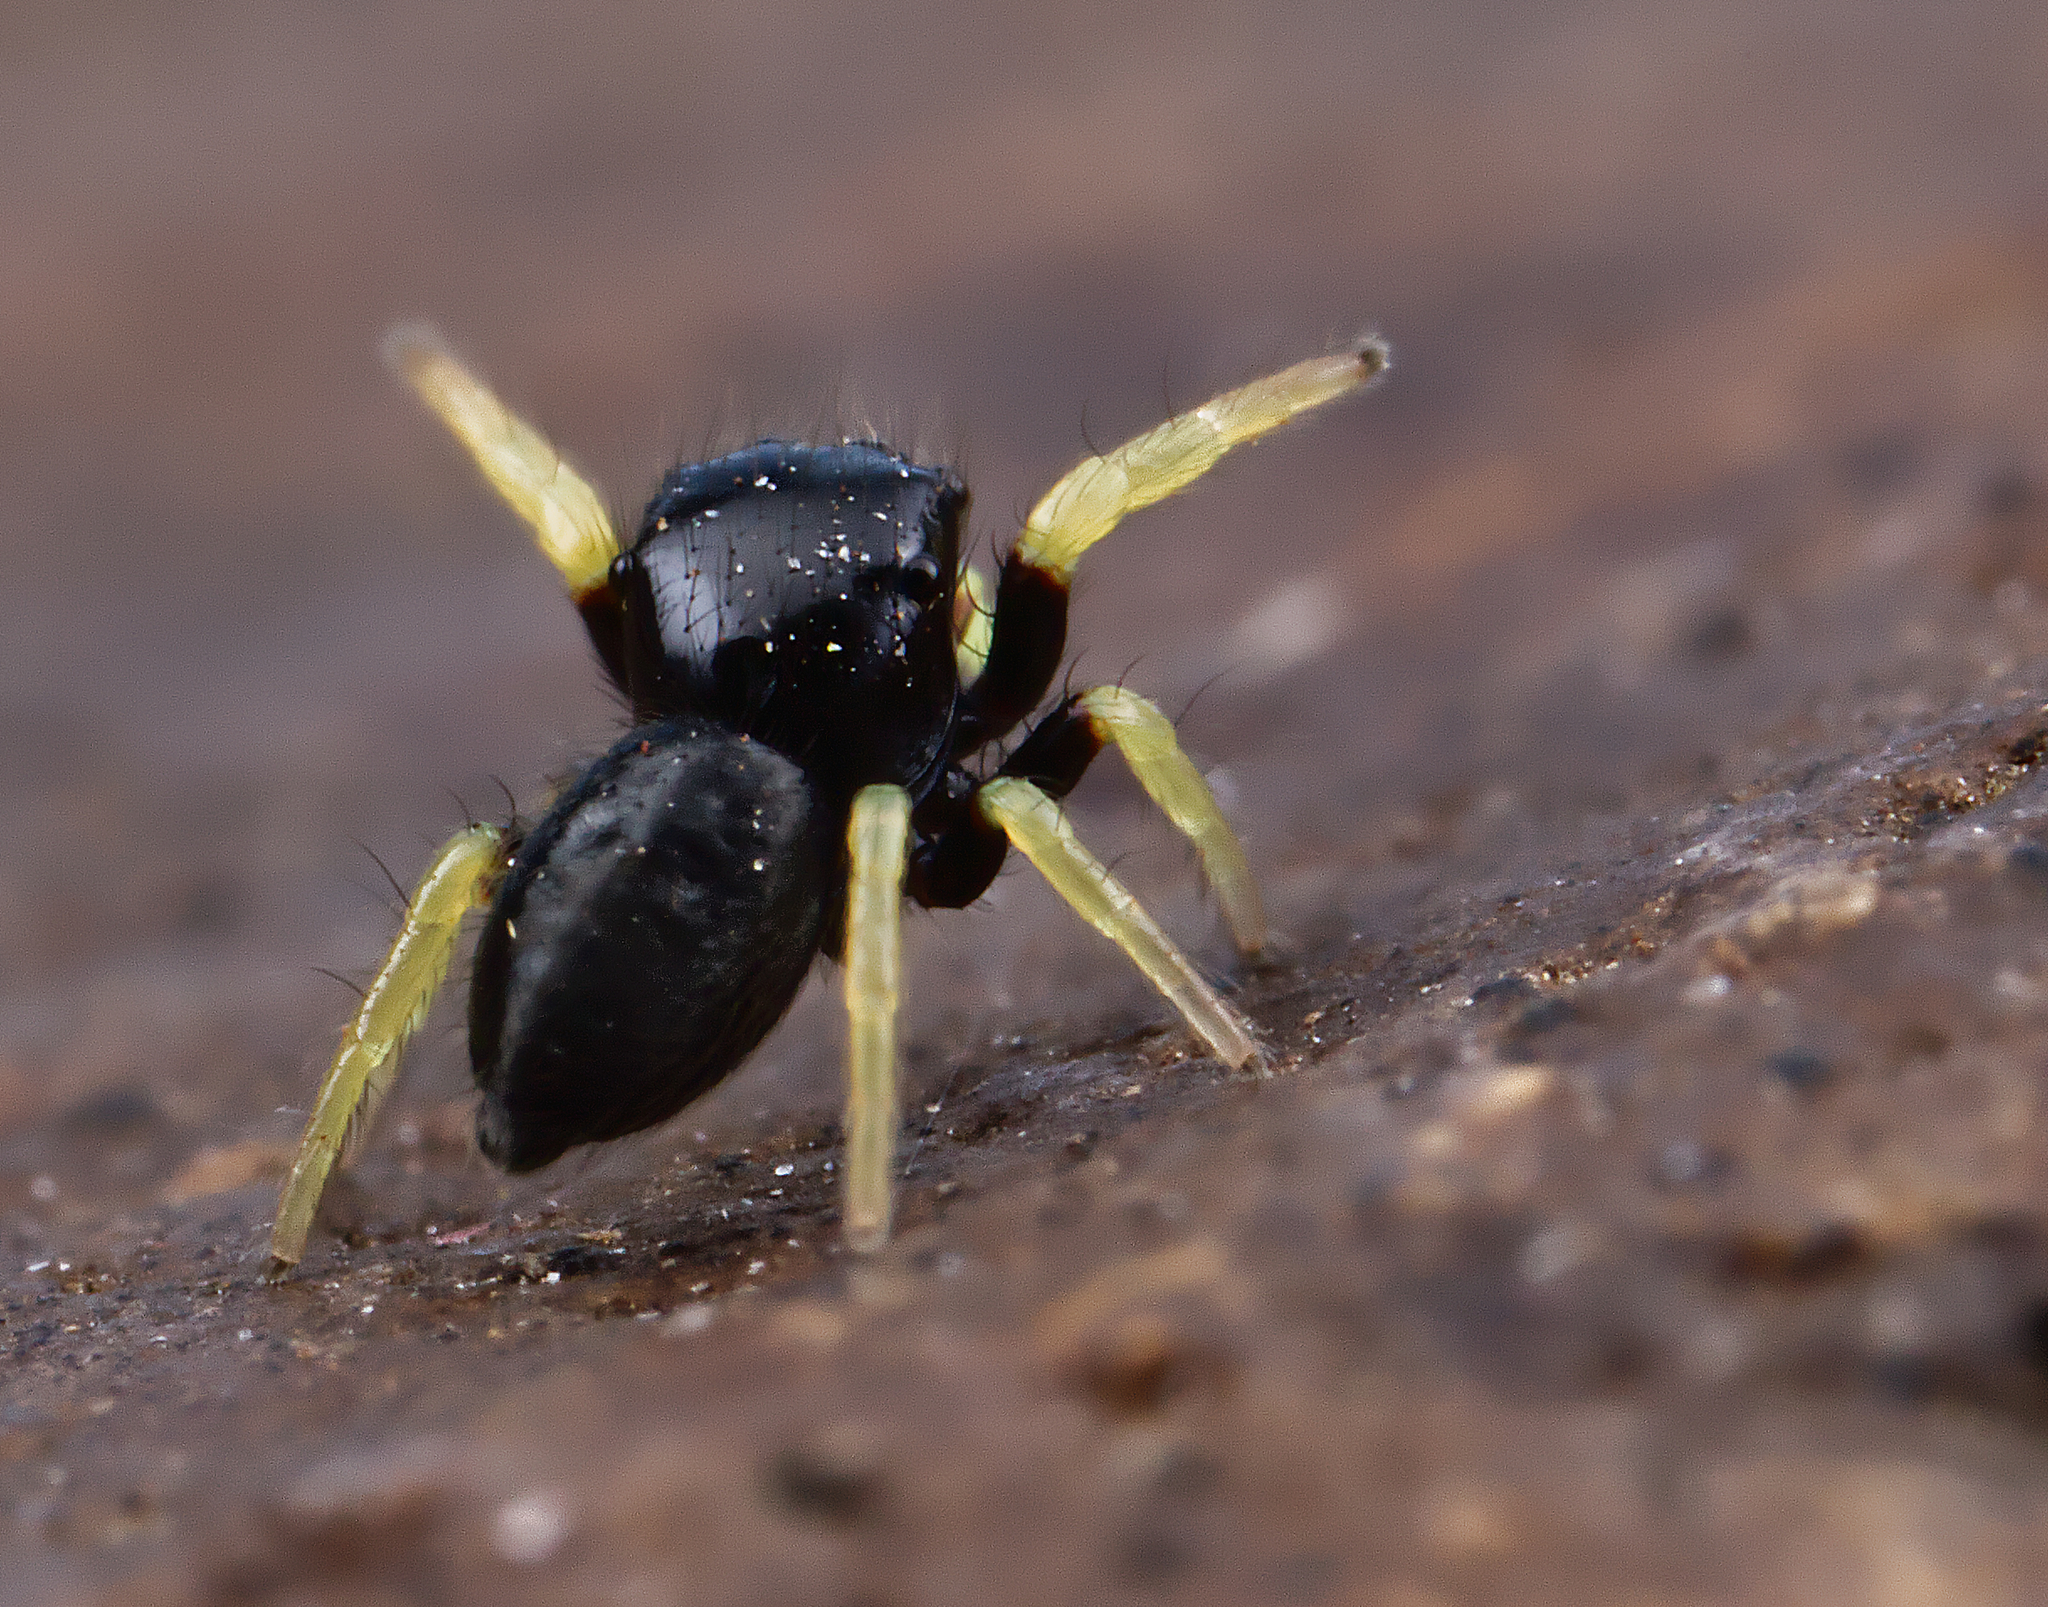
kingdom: Animalia
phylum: Arthropoda
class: Arachnida
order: Araneae
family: Salticidae
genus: Phidippus
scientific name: Phidippus whitmani
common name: Whitman's jumping spider
